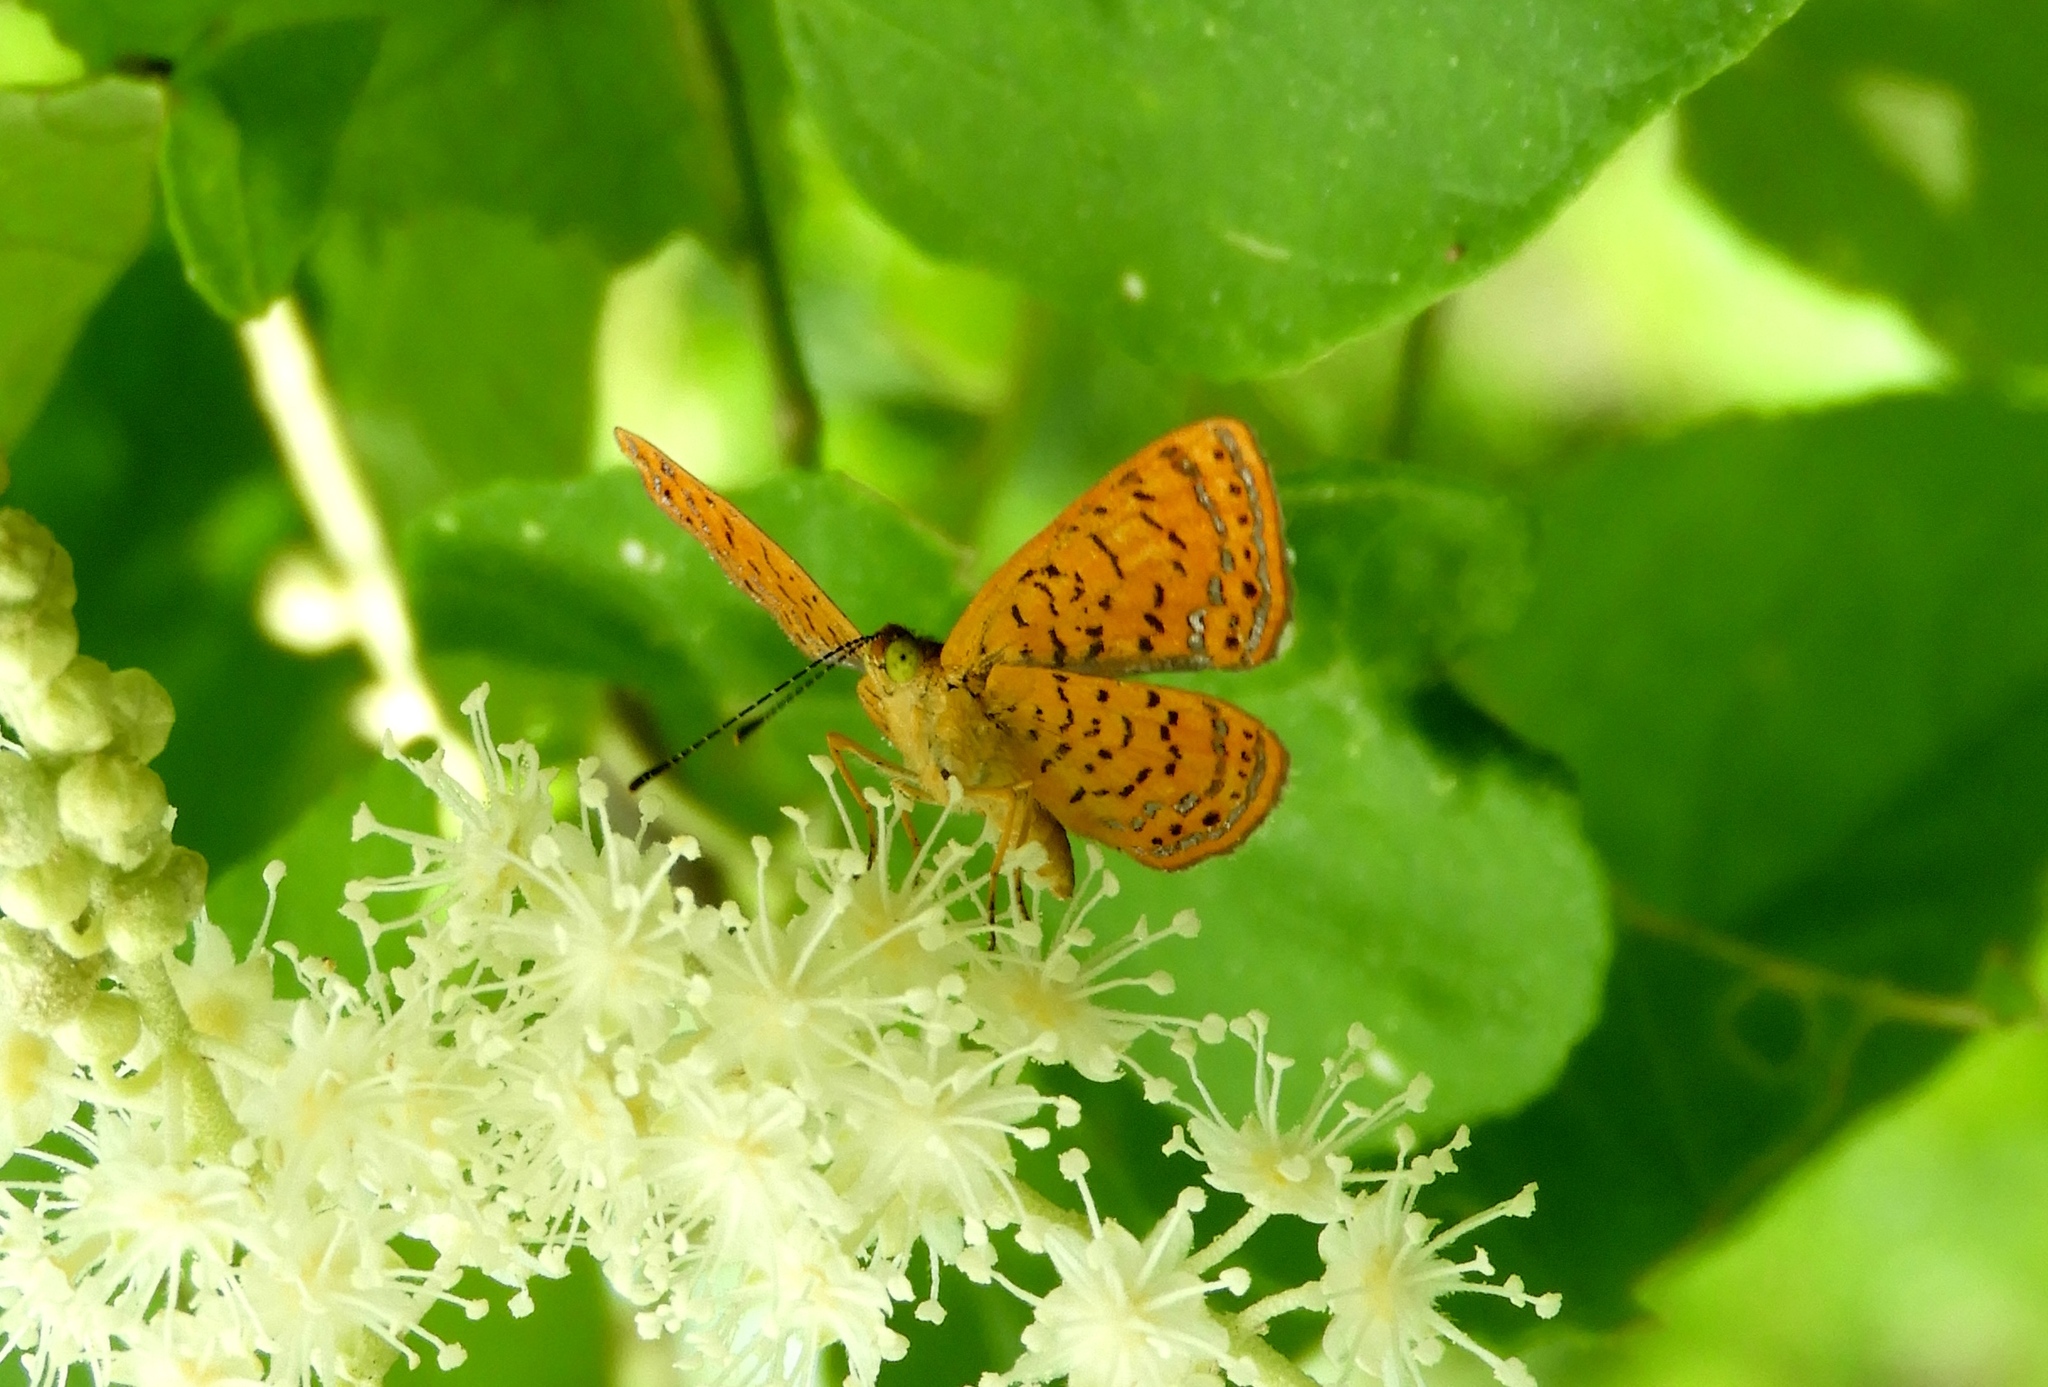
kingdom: Animalia
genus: Calephelis
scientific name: Calephelis
